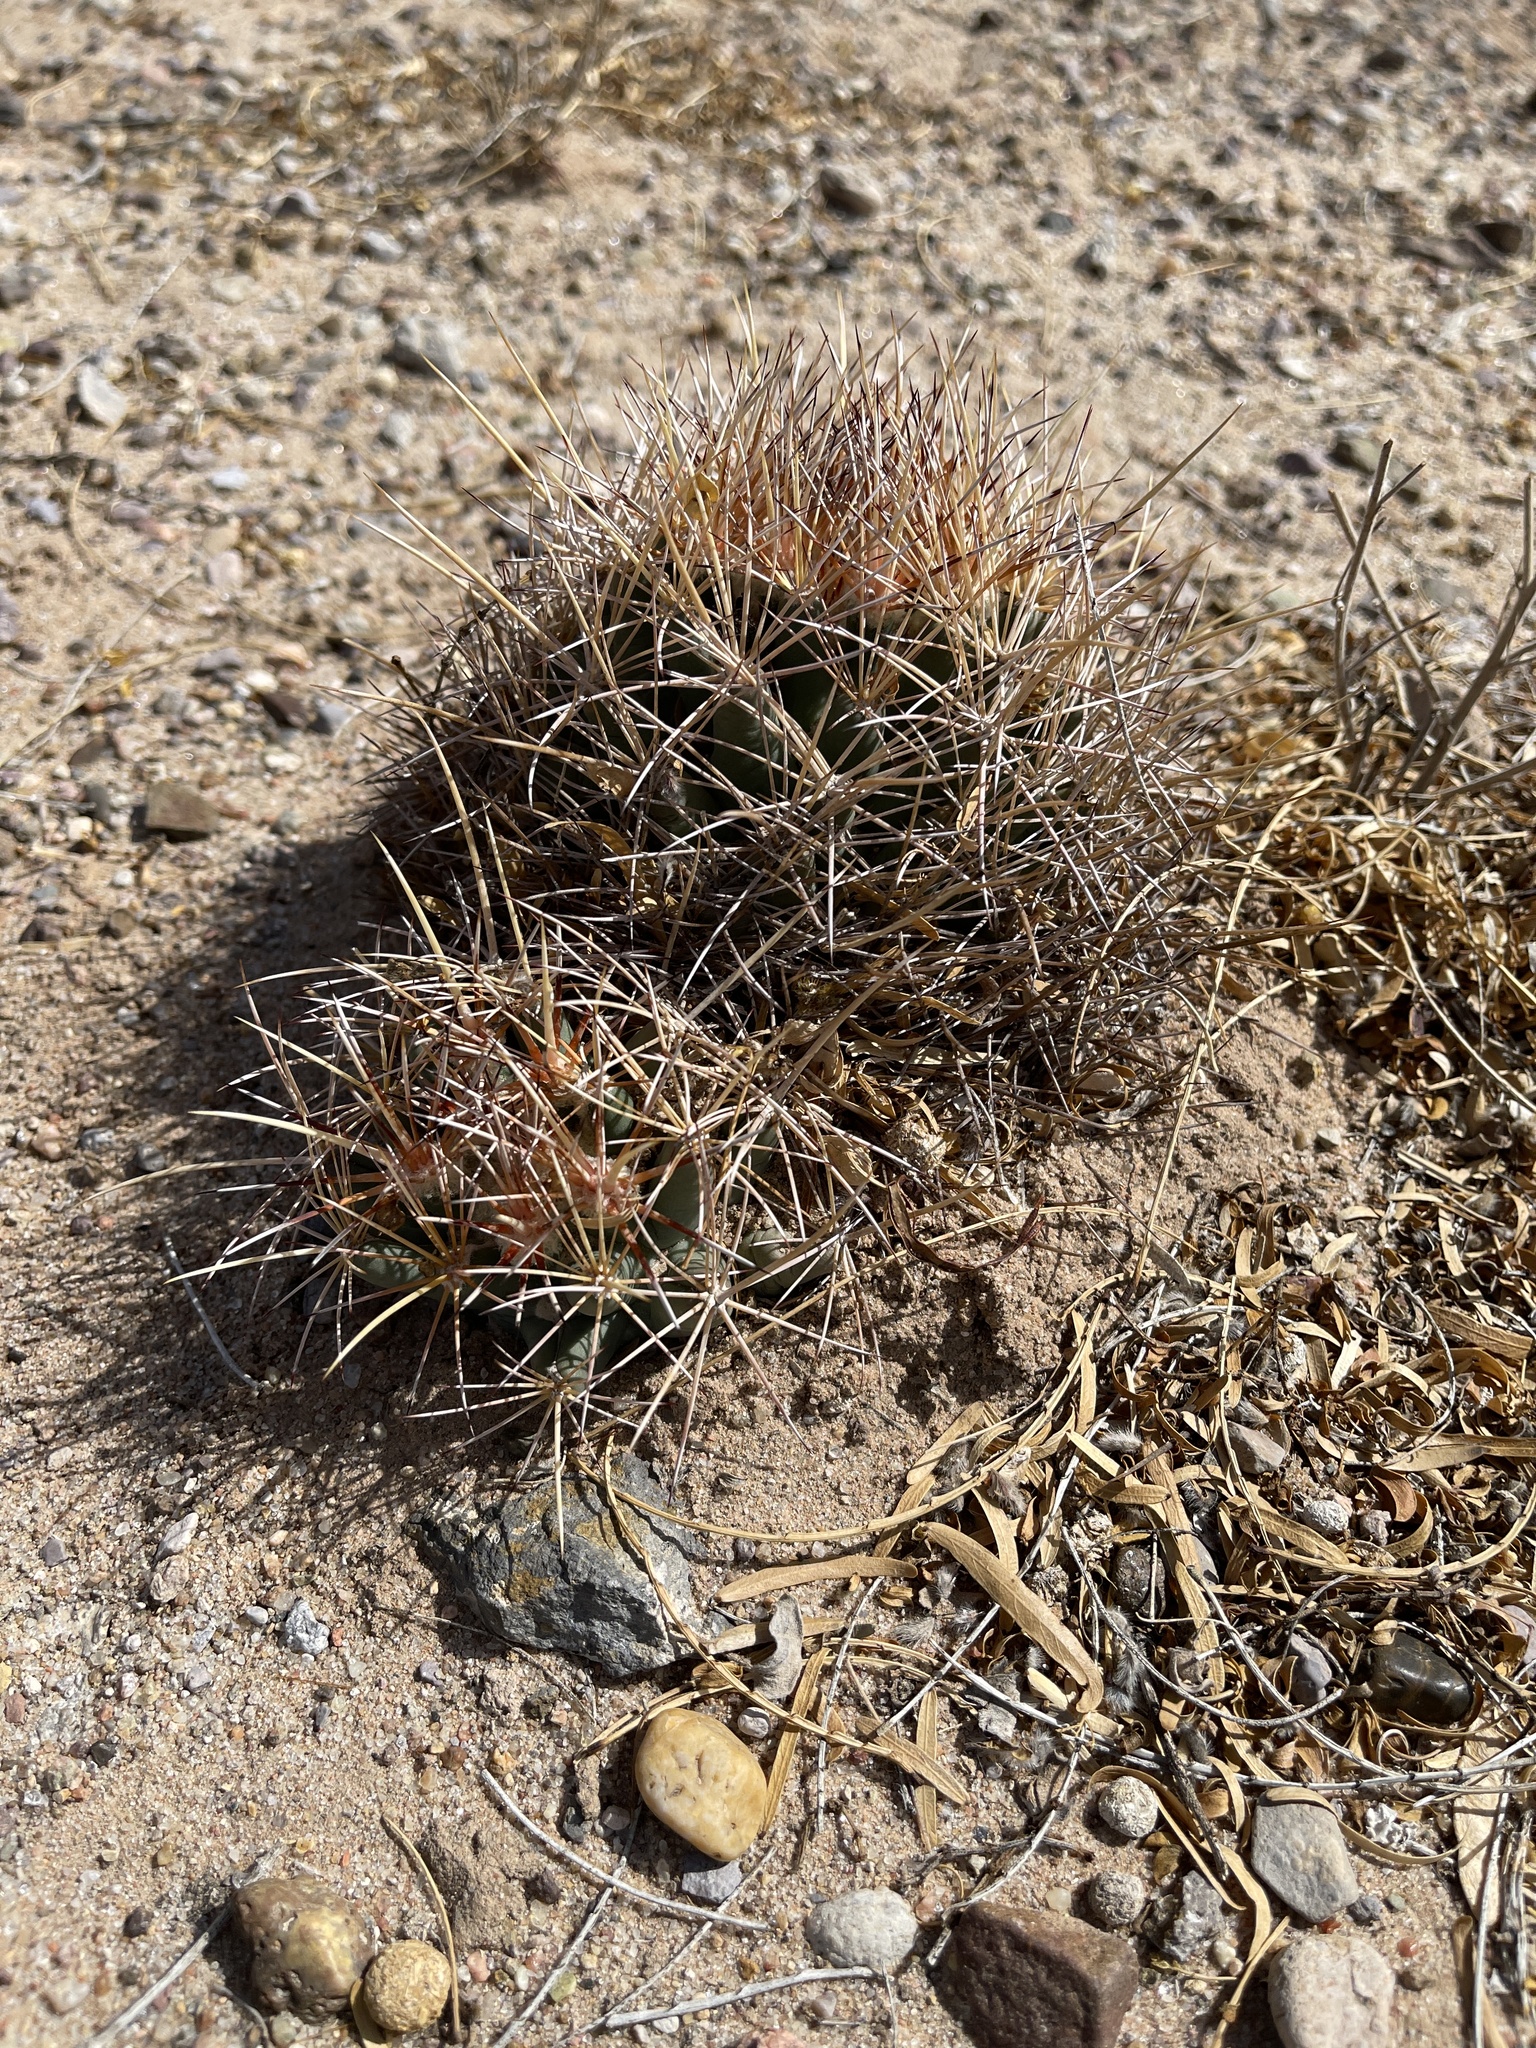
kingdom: Plantae
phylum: Tracheophyta
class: Magnoliopsida
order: Caryophyllales
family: Cactaceae
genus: Coryphantha
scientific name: Coryphantha robustispina
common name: Pima pineapple cactus
